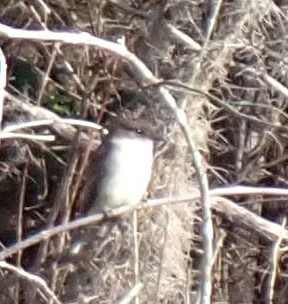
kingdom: Animalia
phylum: Chordata
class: Aves
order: Passeriformes
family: Tyrannidae
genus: Sayornis
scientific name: Sayornis phoebe
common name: Eastern phoebe
